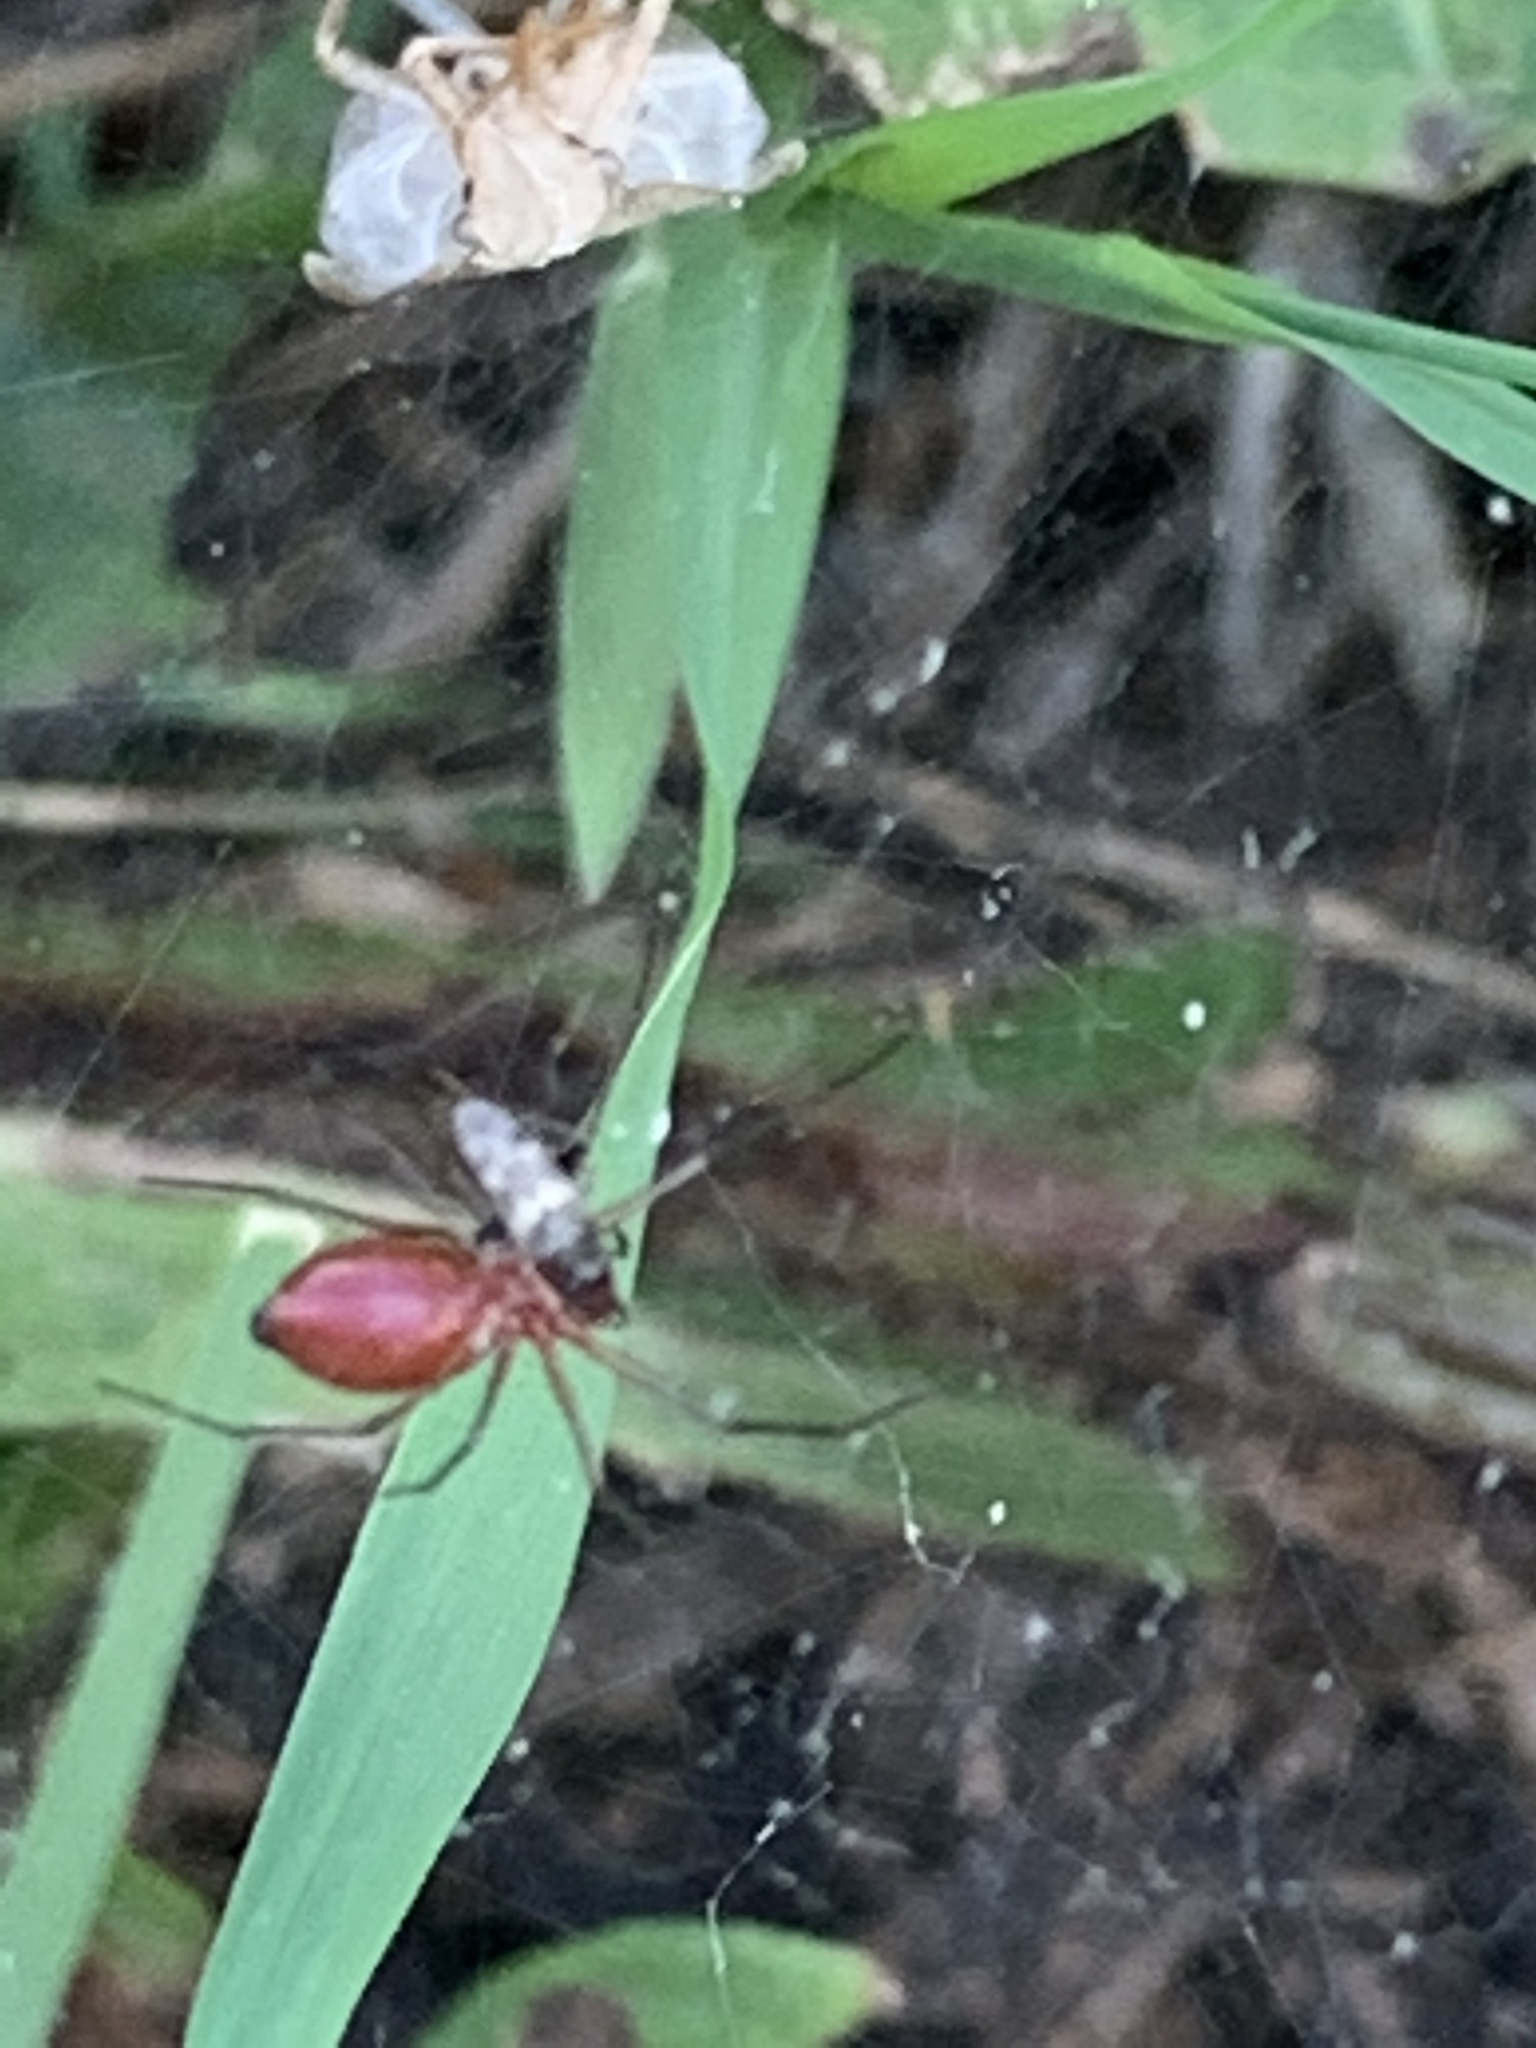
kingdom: Animalia
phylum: Arthropoda
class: Arachnida
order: Araneae
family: Linyphiidae
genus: Florinda
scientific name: Florinda coccinea
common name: Black-tailed red sheetweaver
